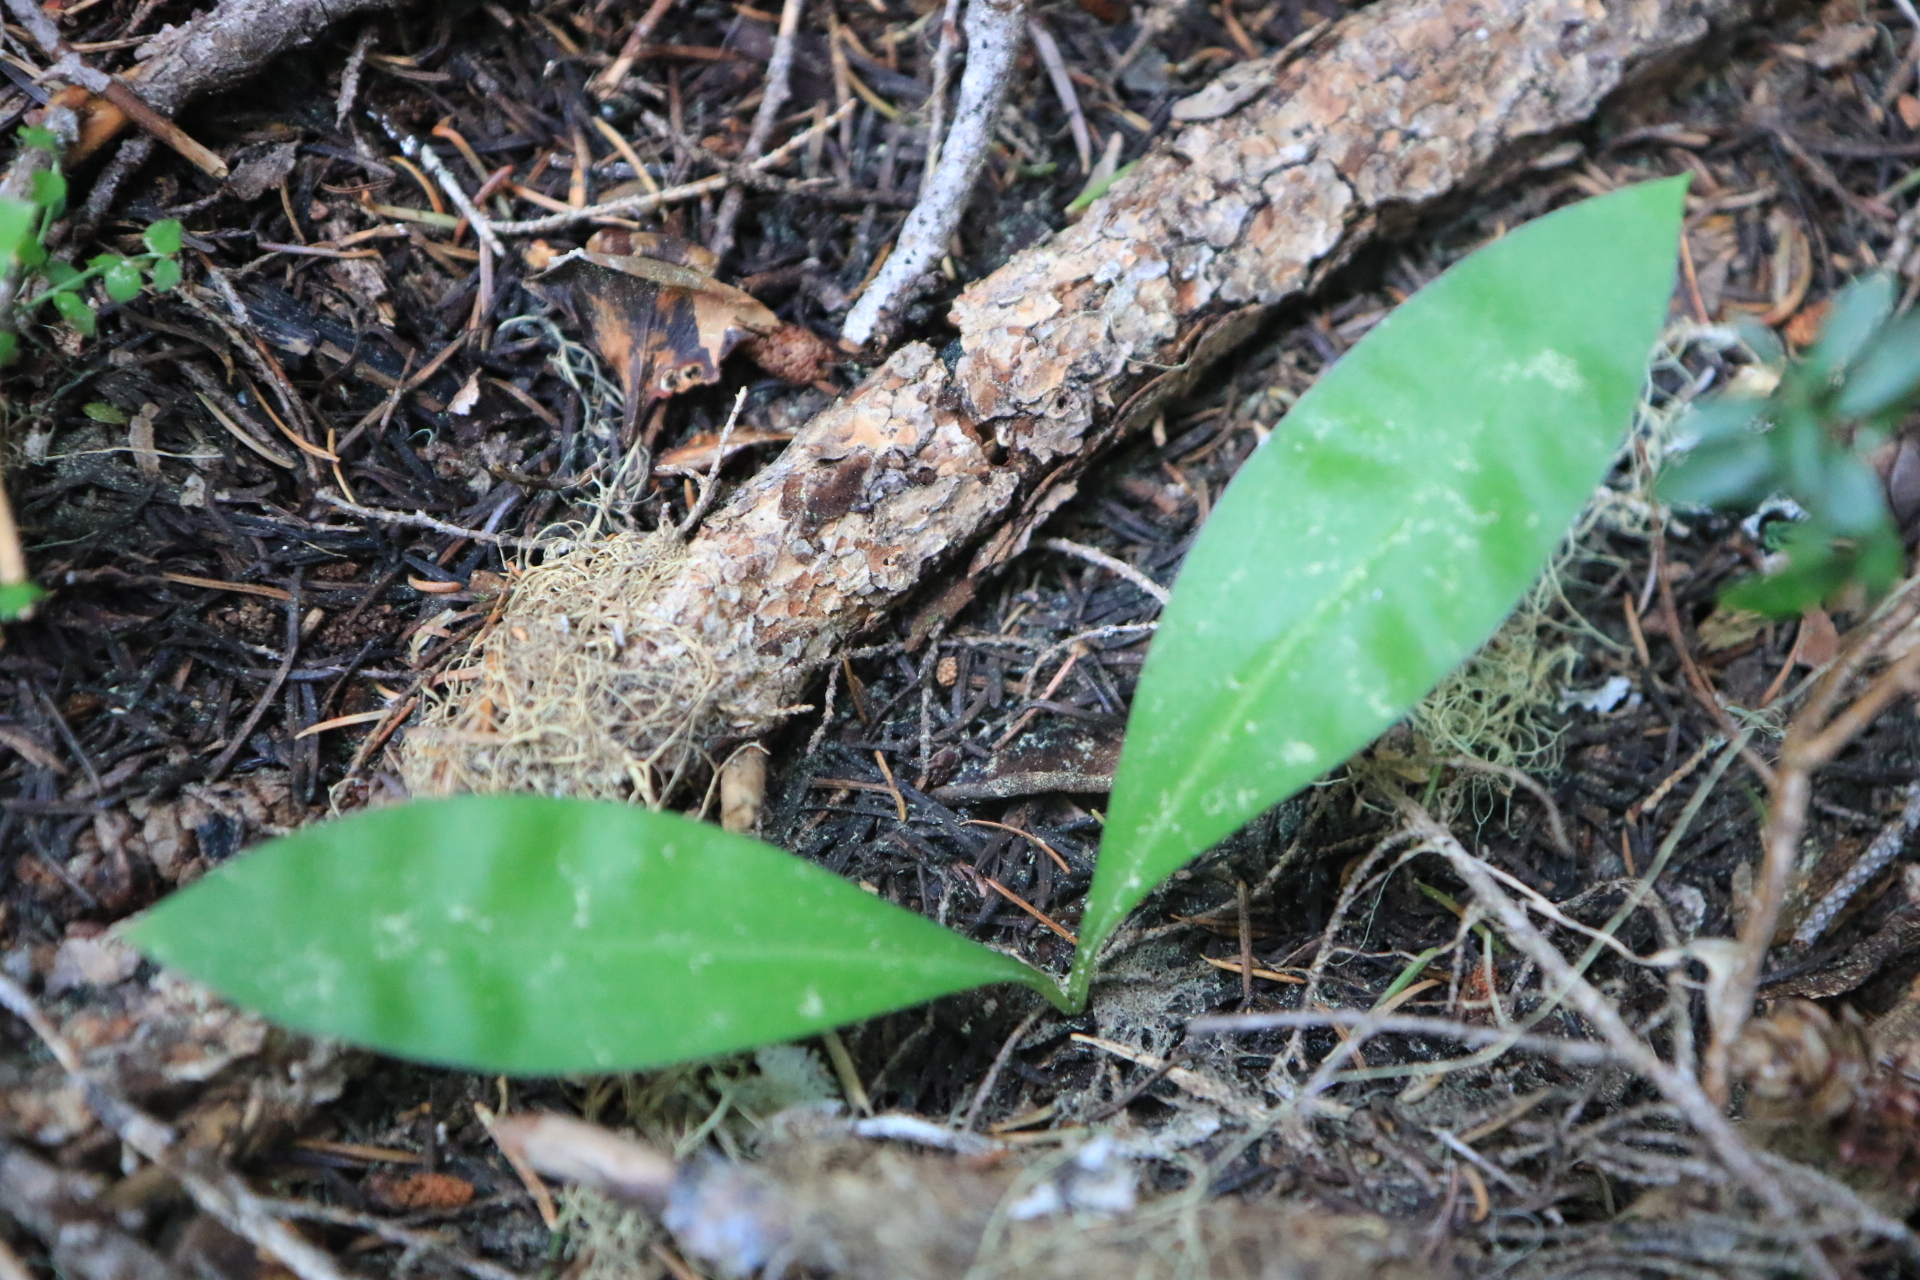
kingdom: Plantae
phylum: Tracheophyta
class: Liliopsida
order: Liliales
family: Liliaceae
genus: Clintonia
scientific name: Clintonia uniflora
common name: Queen's cup
